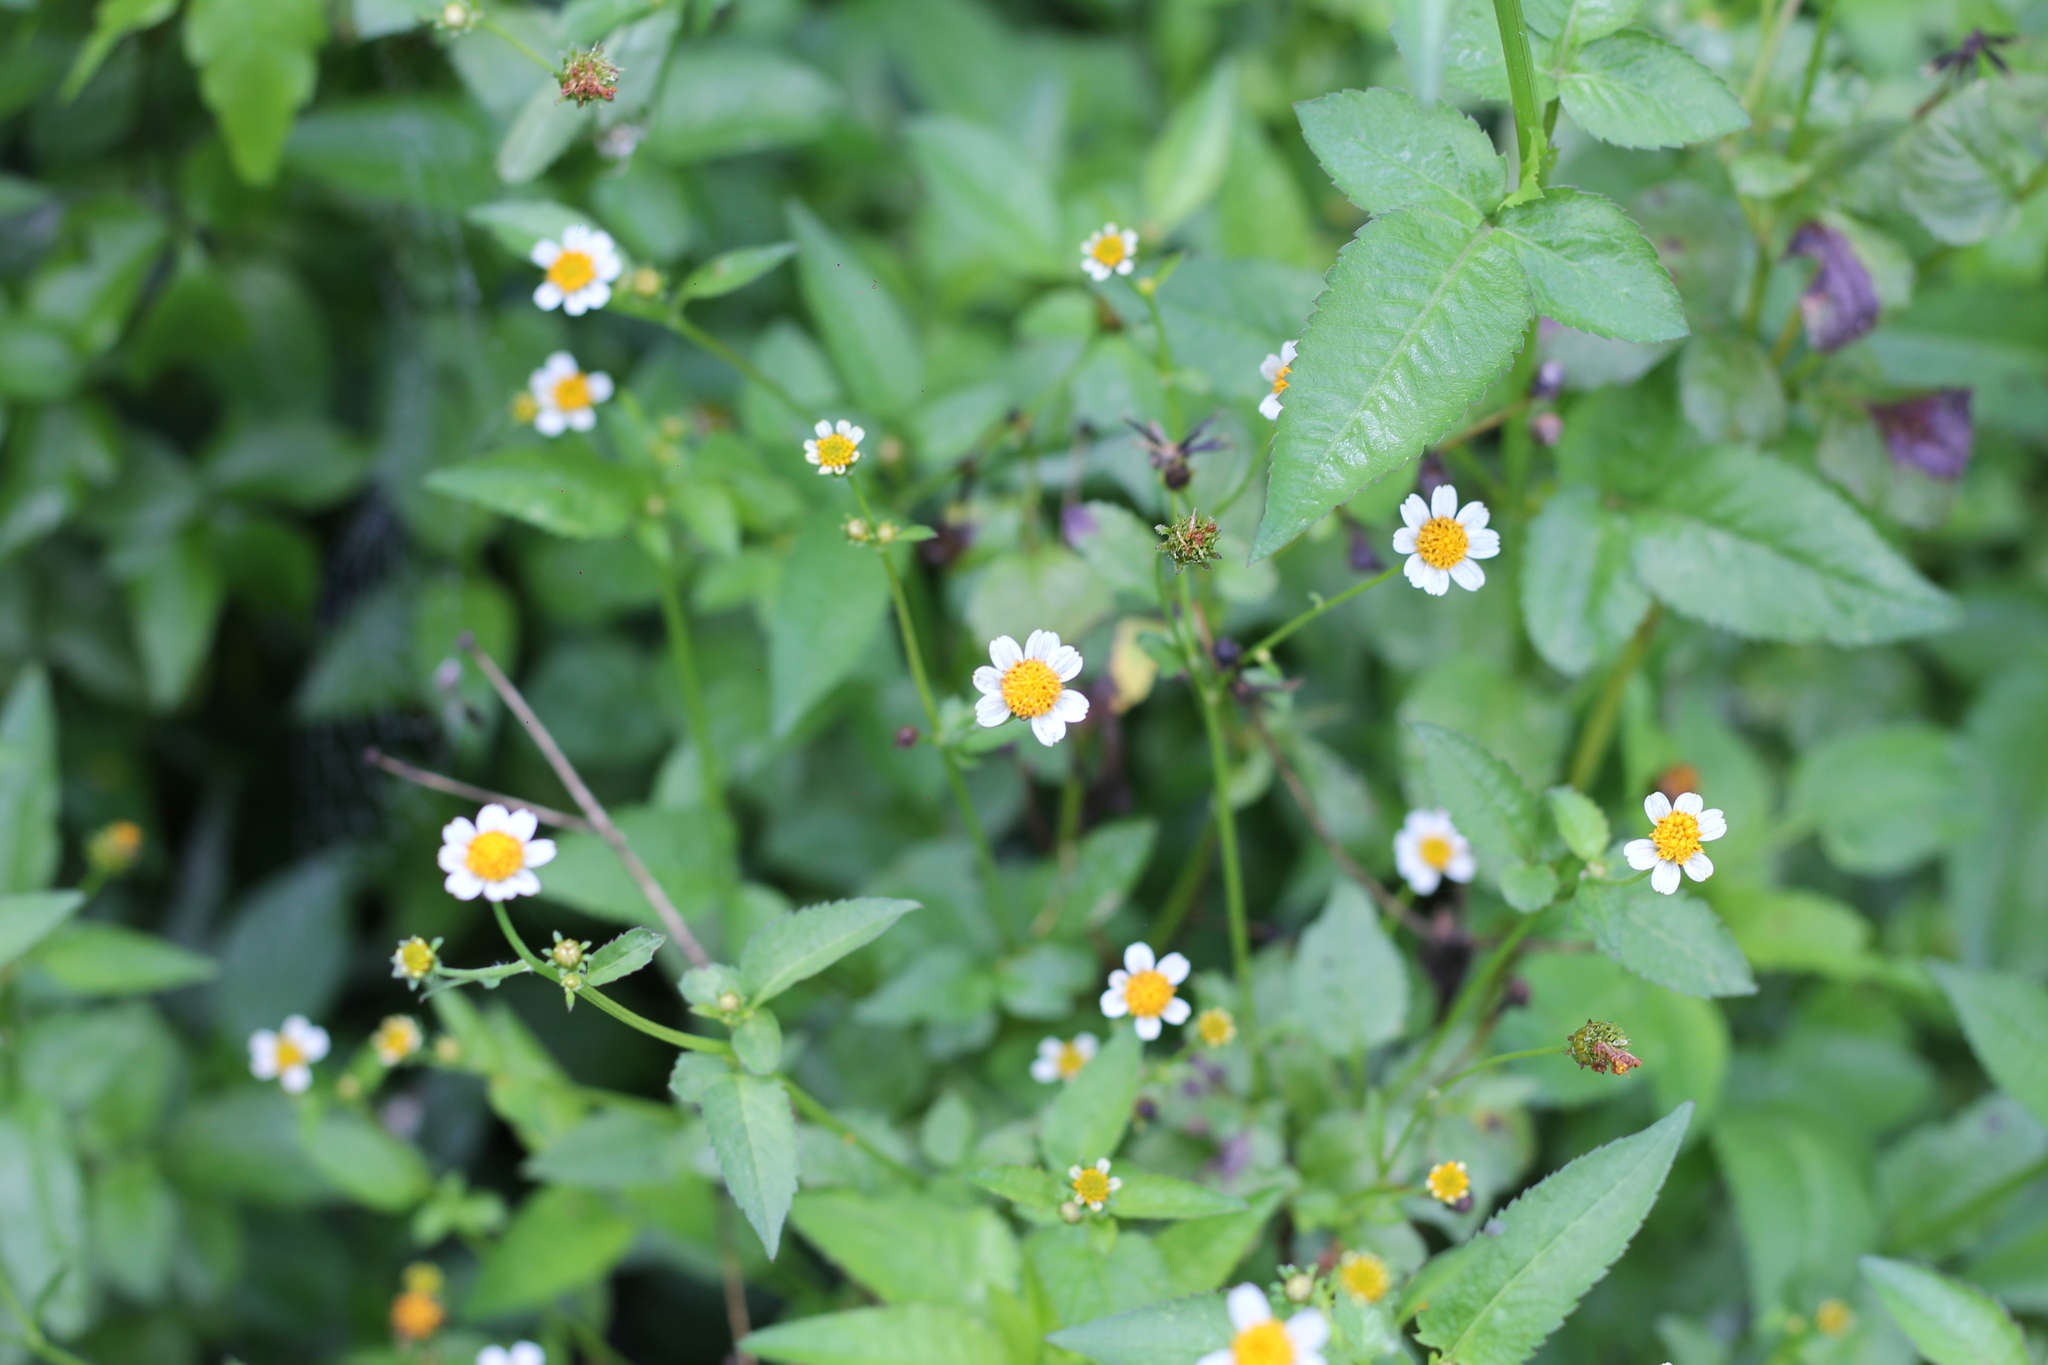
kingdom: Plantae
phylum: Tracheophyta
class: Magnoliopsida
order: Asterales
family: Asteraceae
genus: Bidens
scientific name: Bidens pilosa
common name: Black-jack
